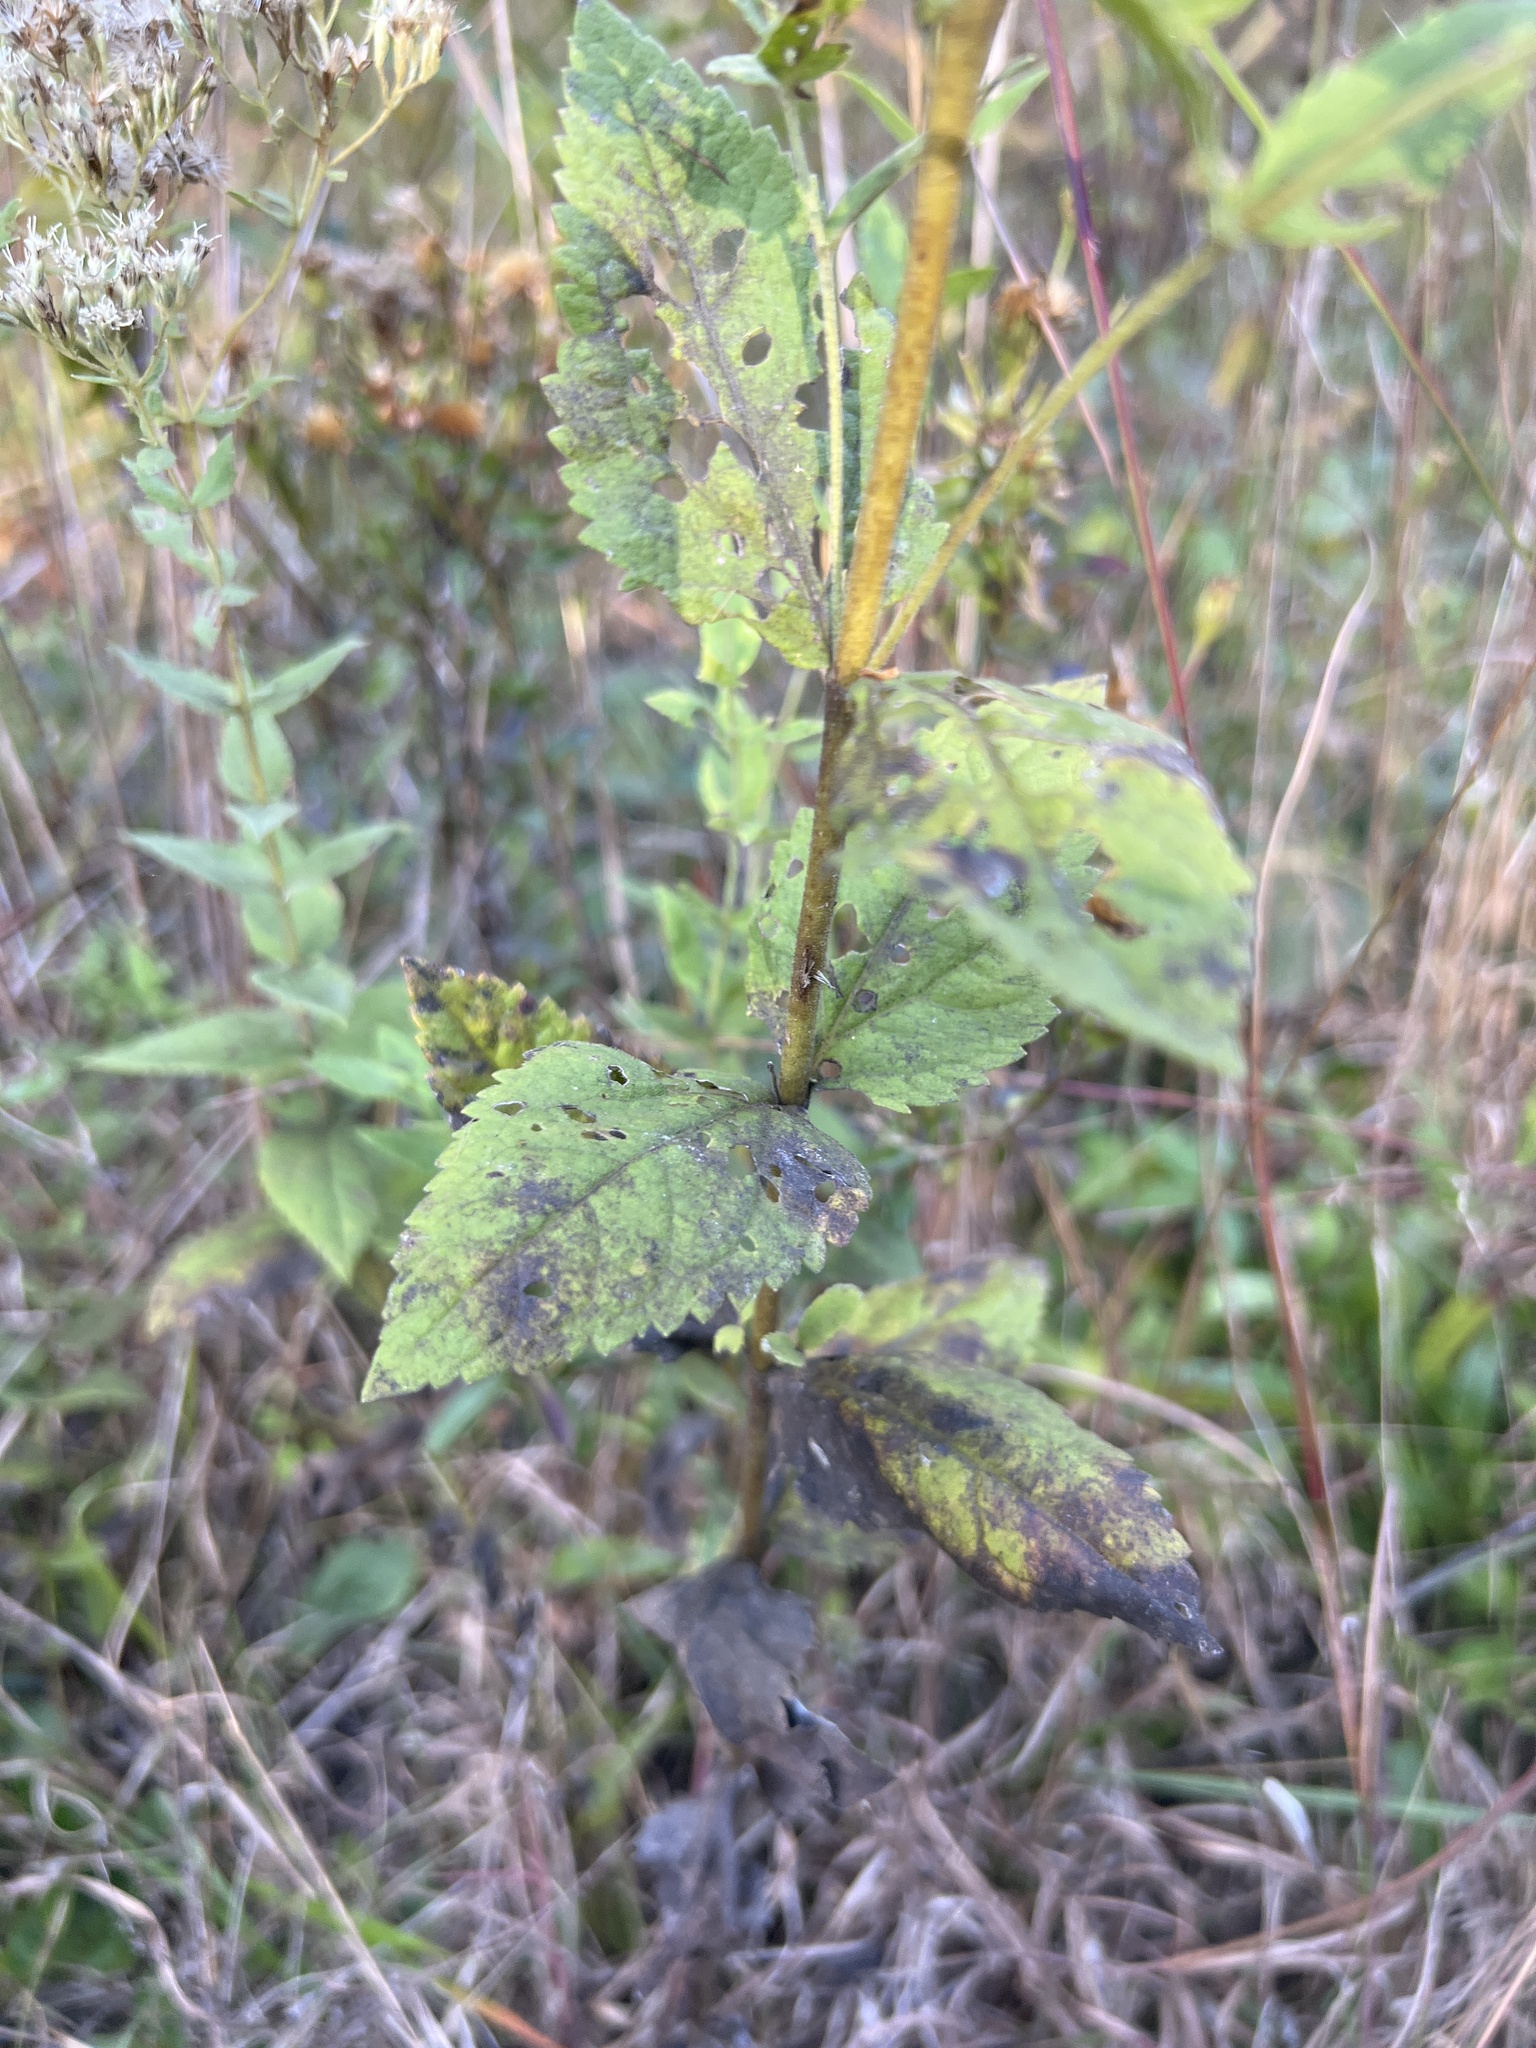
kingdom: Plantae
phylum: Tracheophyta
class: Magnoliopsida
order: Asterales
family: Asteraceae
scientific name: Asteraceae
